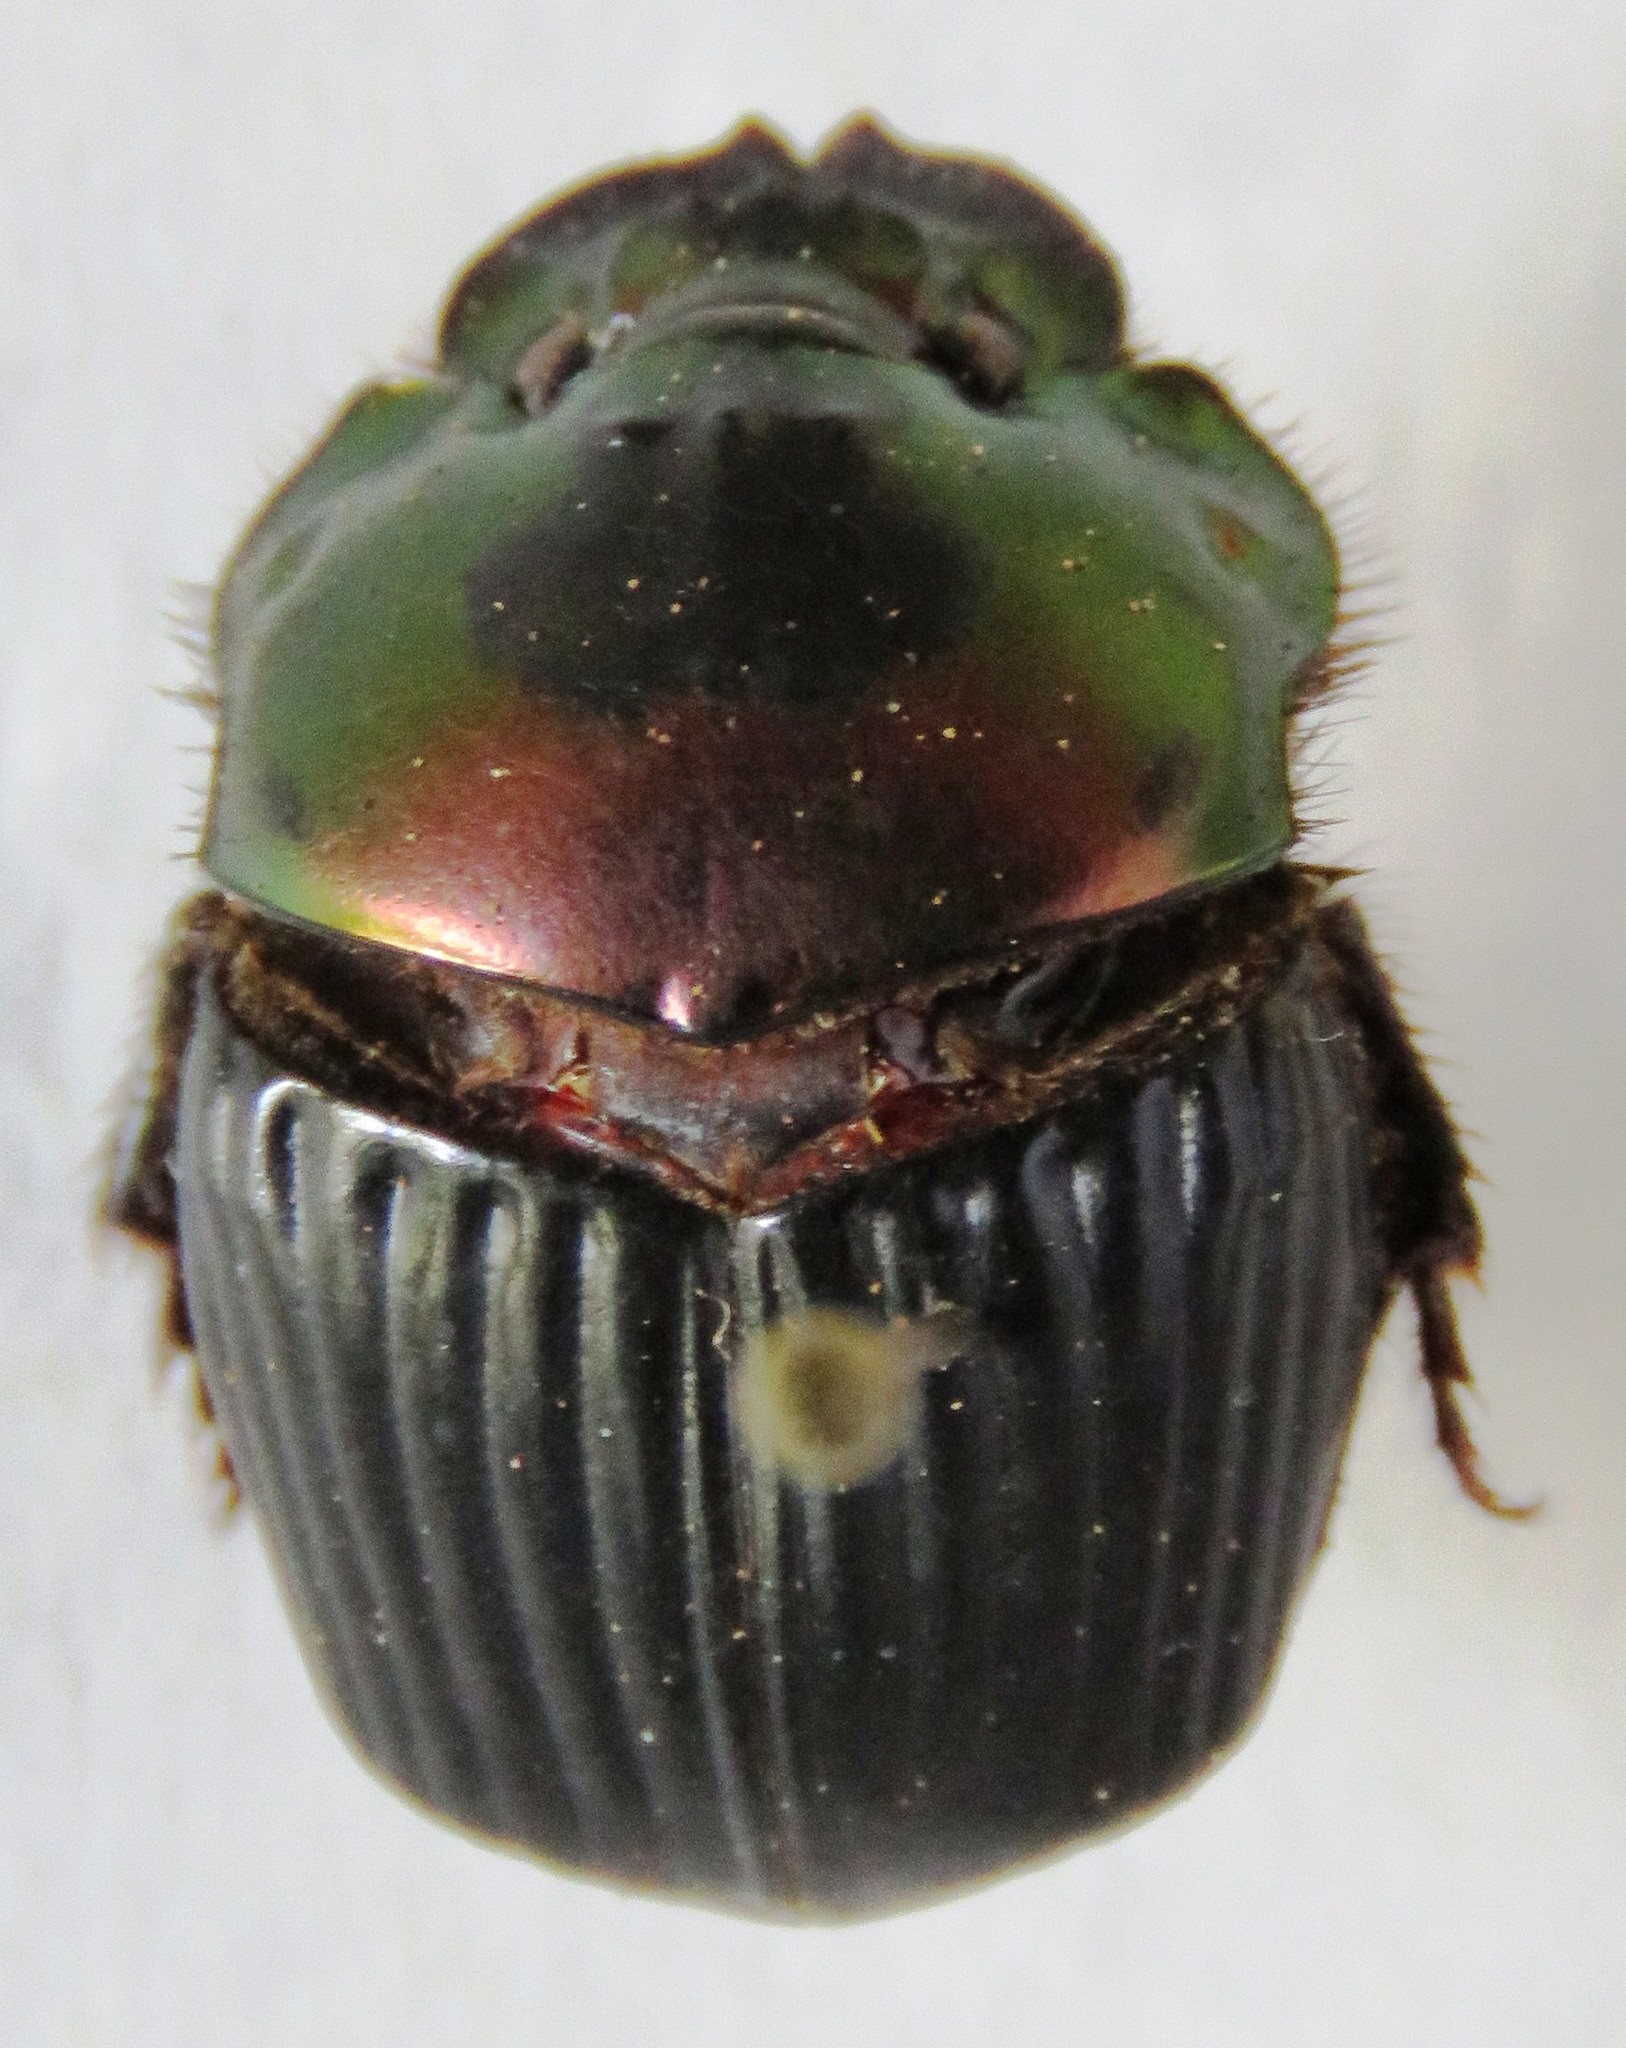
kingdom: Animalia
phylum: Arthropoda
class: Insecta
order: Coleoptera
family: Scarabaeidae
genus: Phanaeus
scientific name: Phanaeus pyrois
